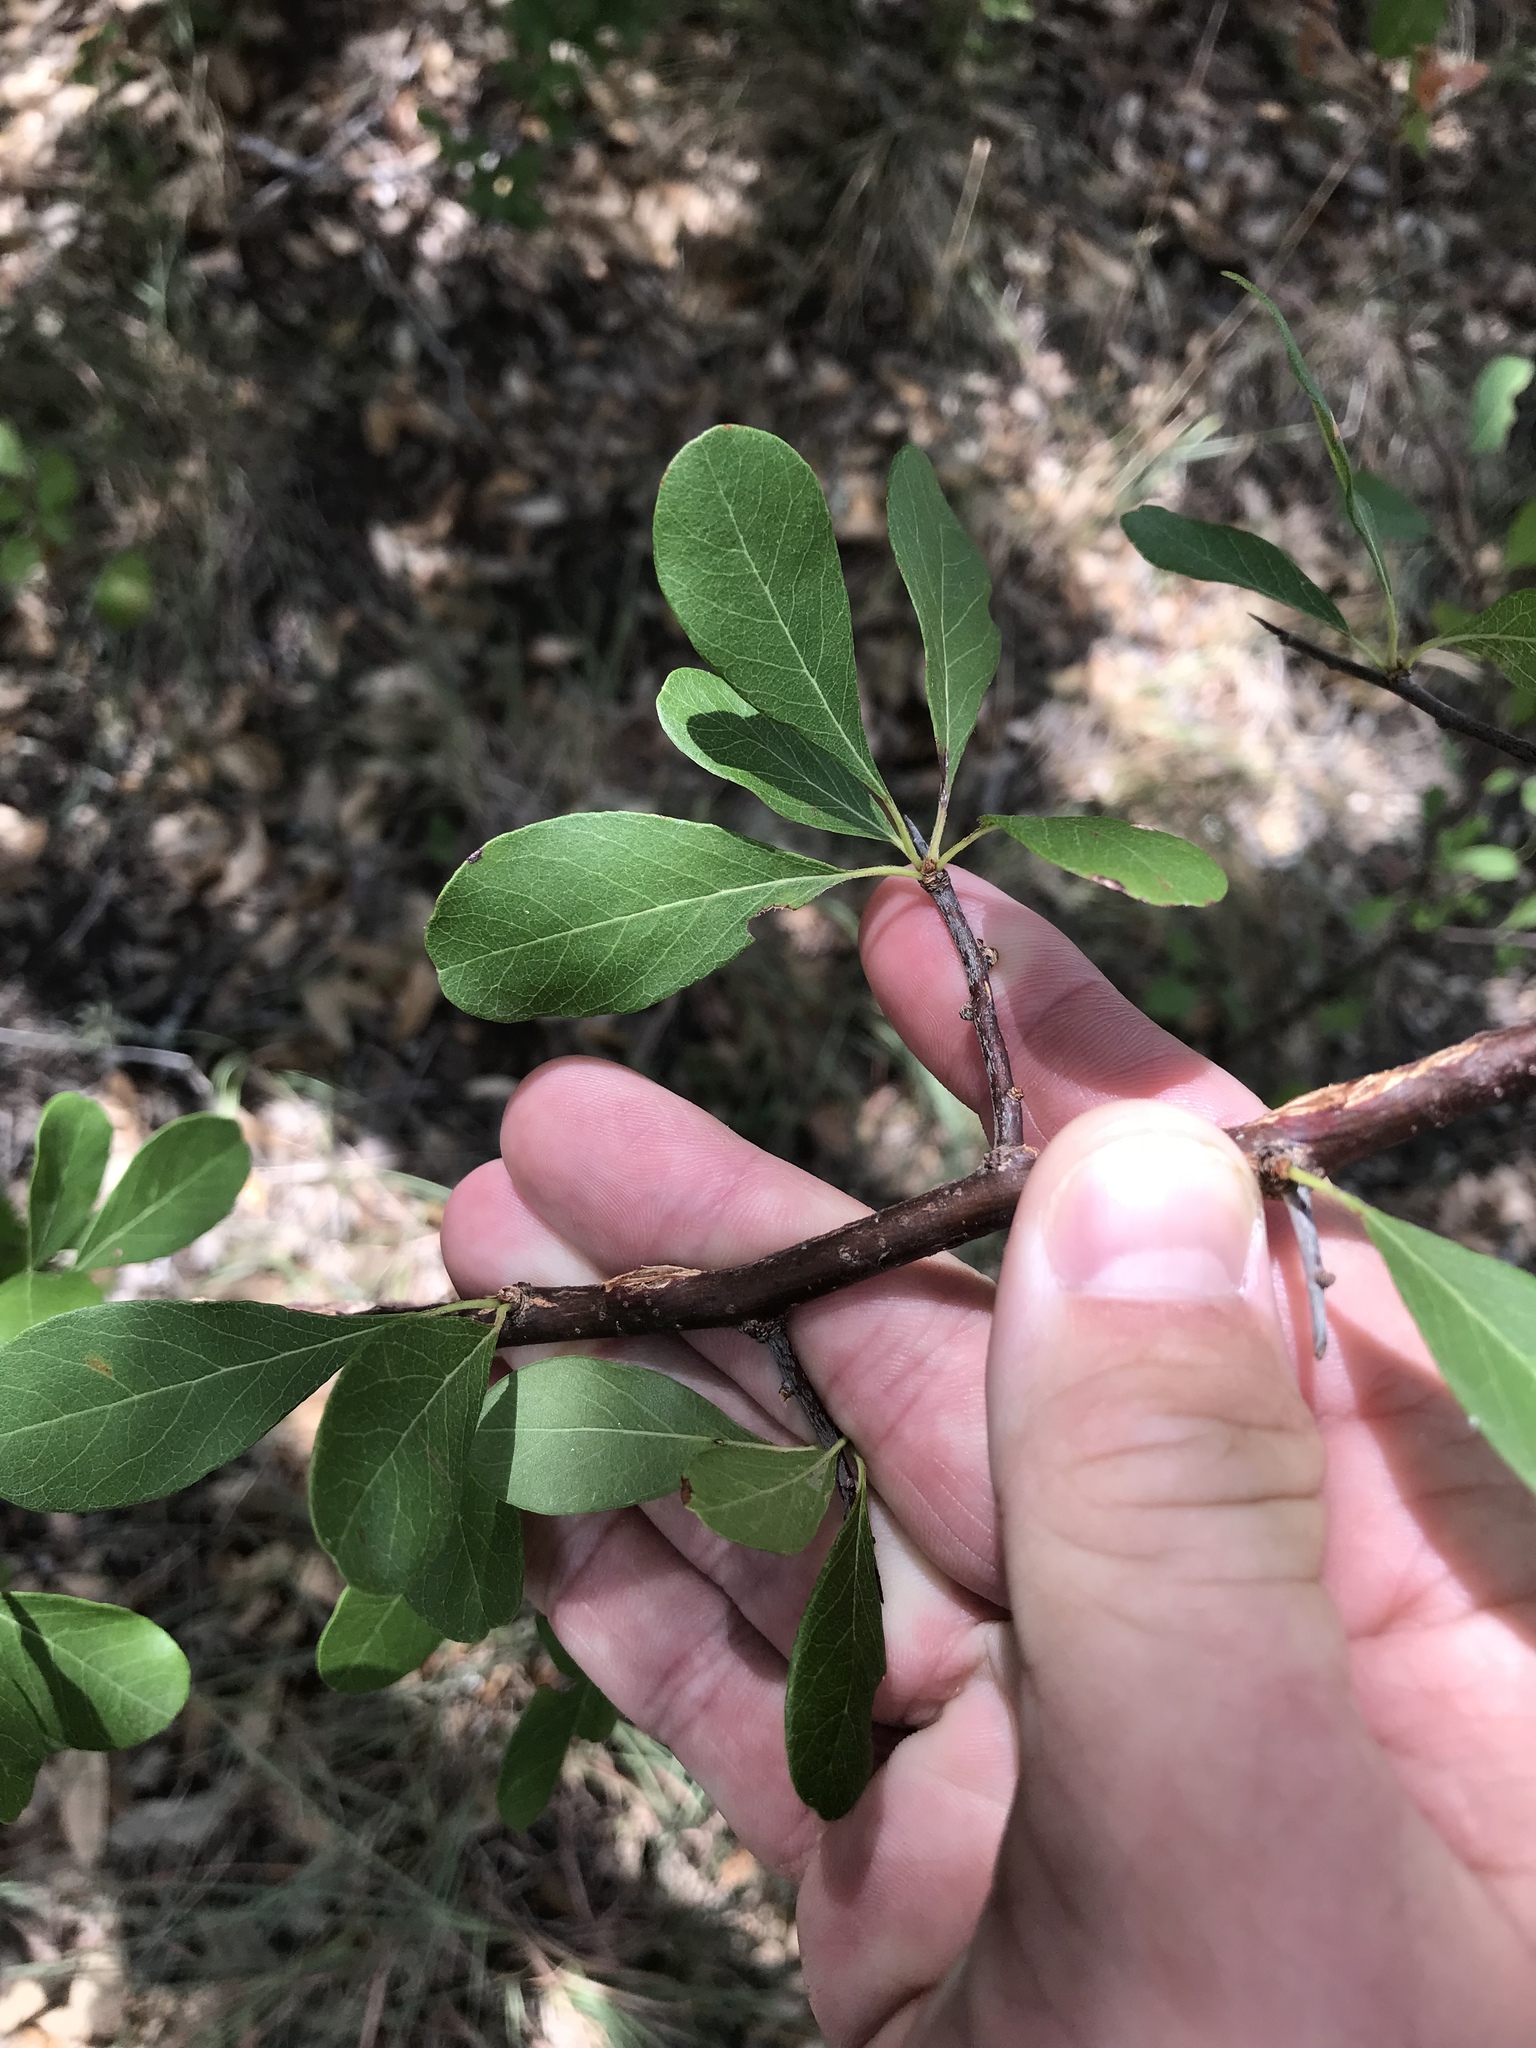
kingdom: Plantae
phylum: Tracheophyta
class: Magnoliopsida
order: Ericales
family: Sapotaceae
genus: Sideroxylon
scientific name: Sideroxylon lanuginosum
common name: Chittamwood
